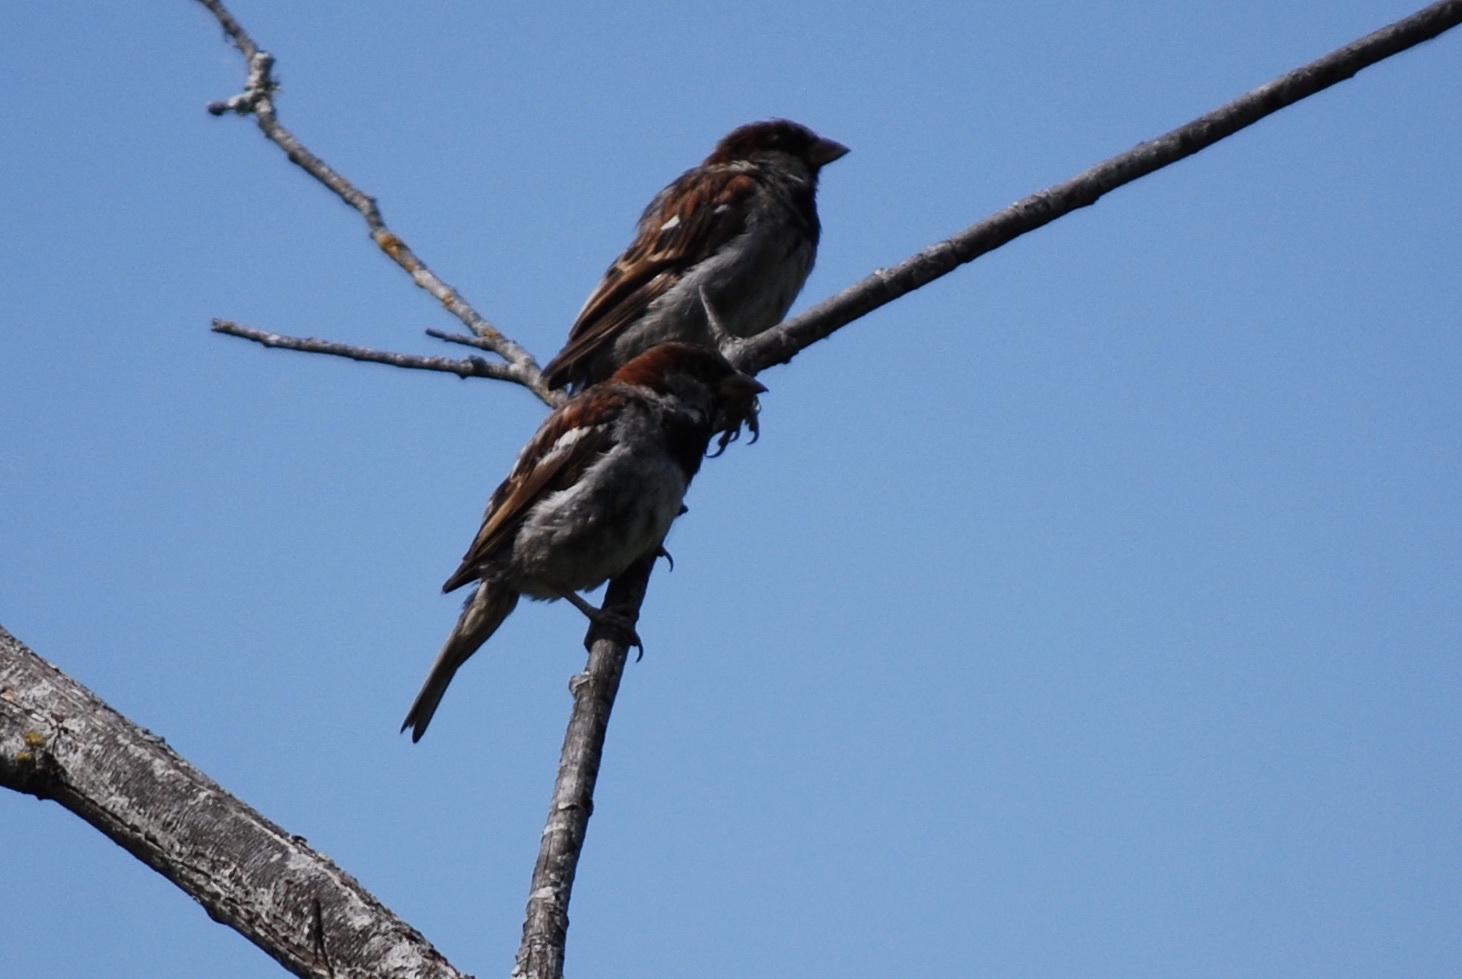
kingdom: Animalia
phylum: Chordata
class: Aves
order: Passeriformes
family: Passeridae
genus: Passer
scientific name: Passer domesticus
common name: House sparrow
